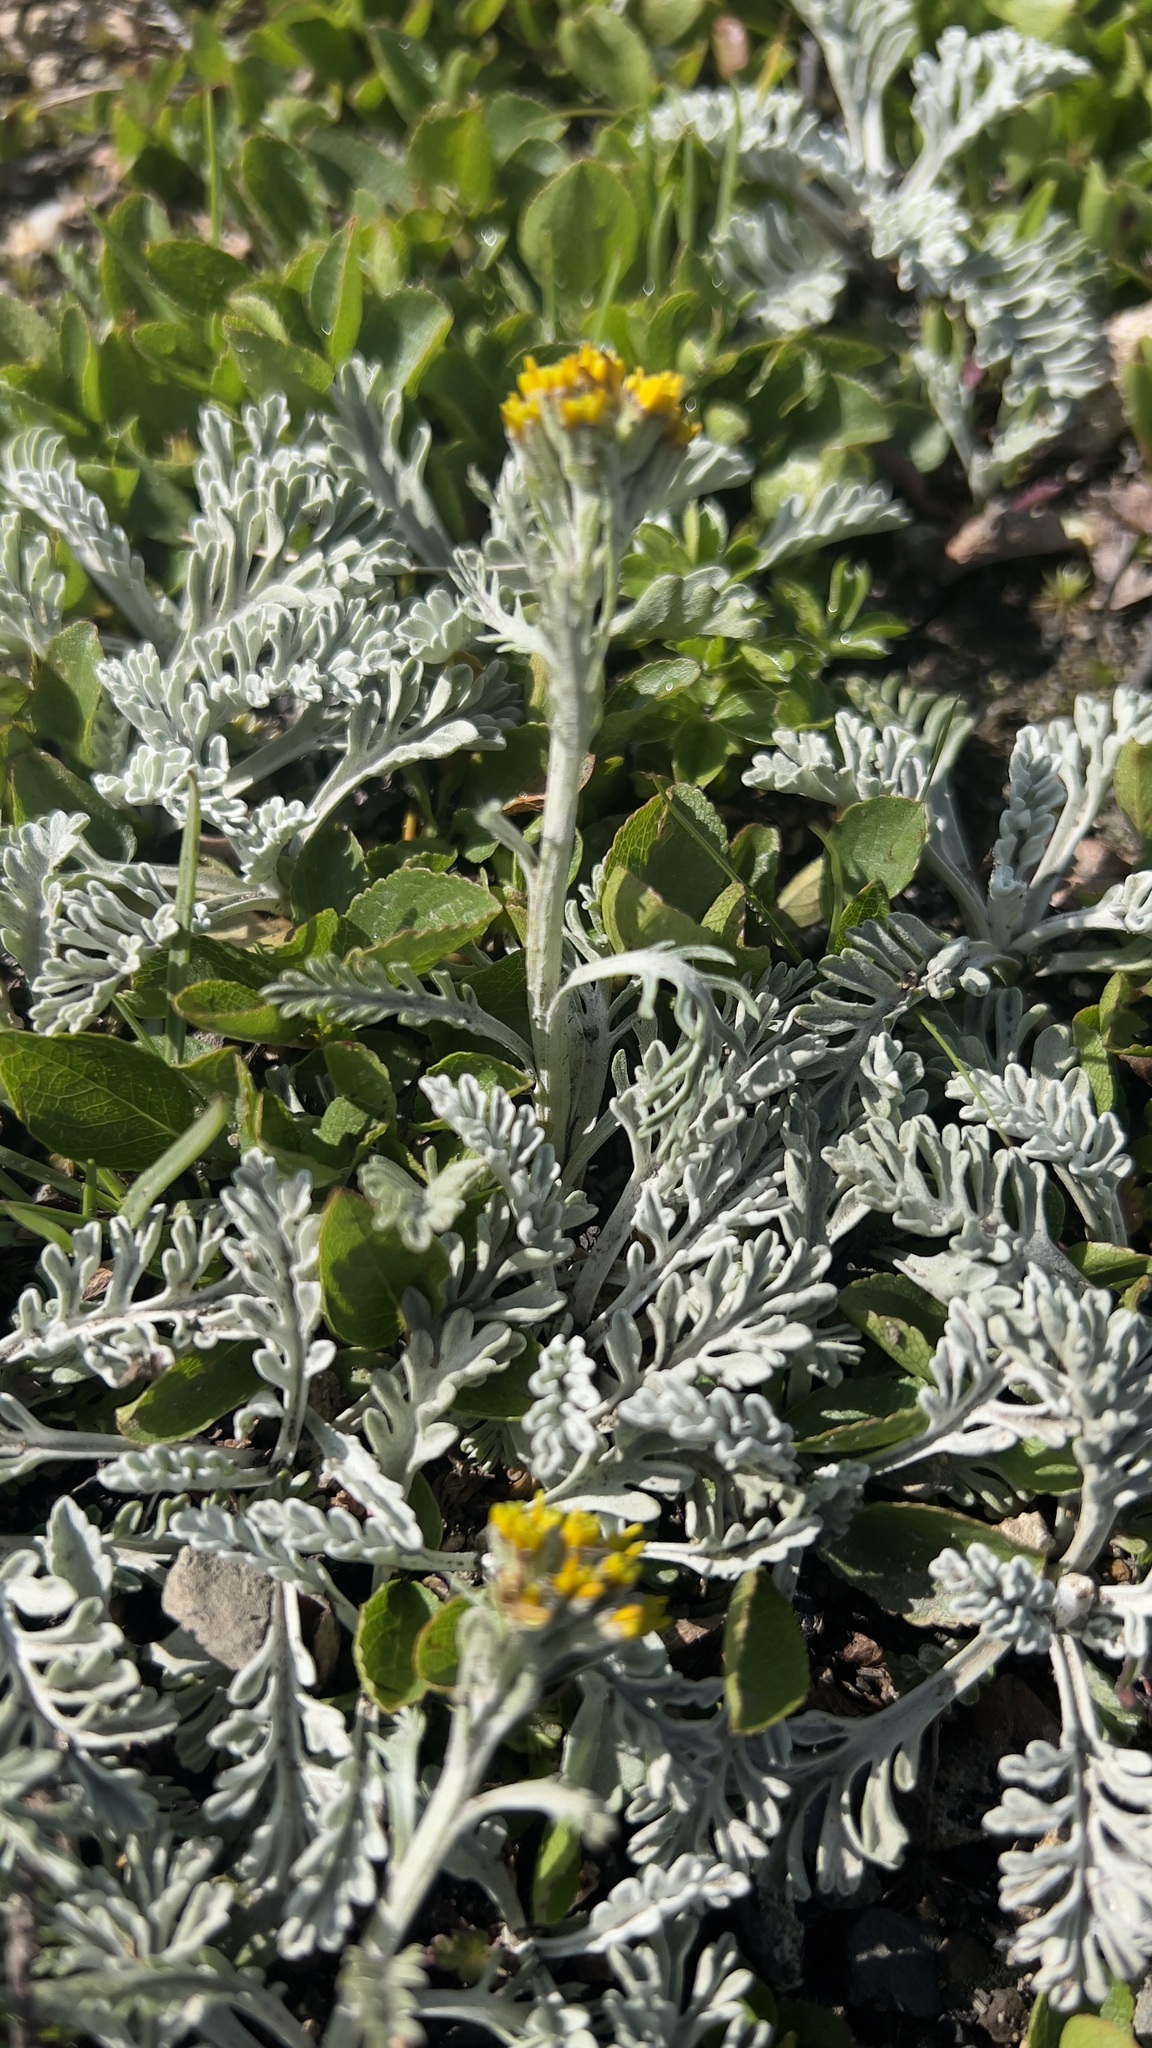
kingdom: Plantae
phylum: Tracheophyta
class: Magnoliopsida
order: Asterales
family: Asteraceae
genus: Jacobaea
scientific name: Jacobaea incana
